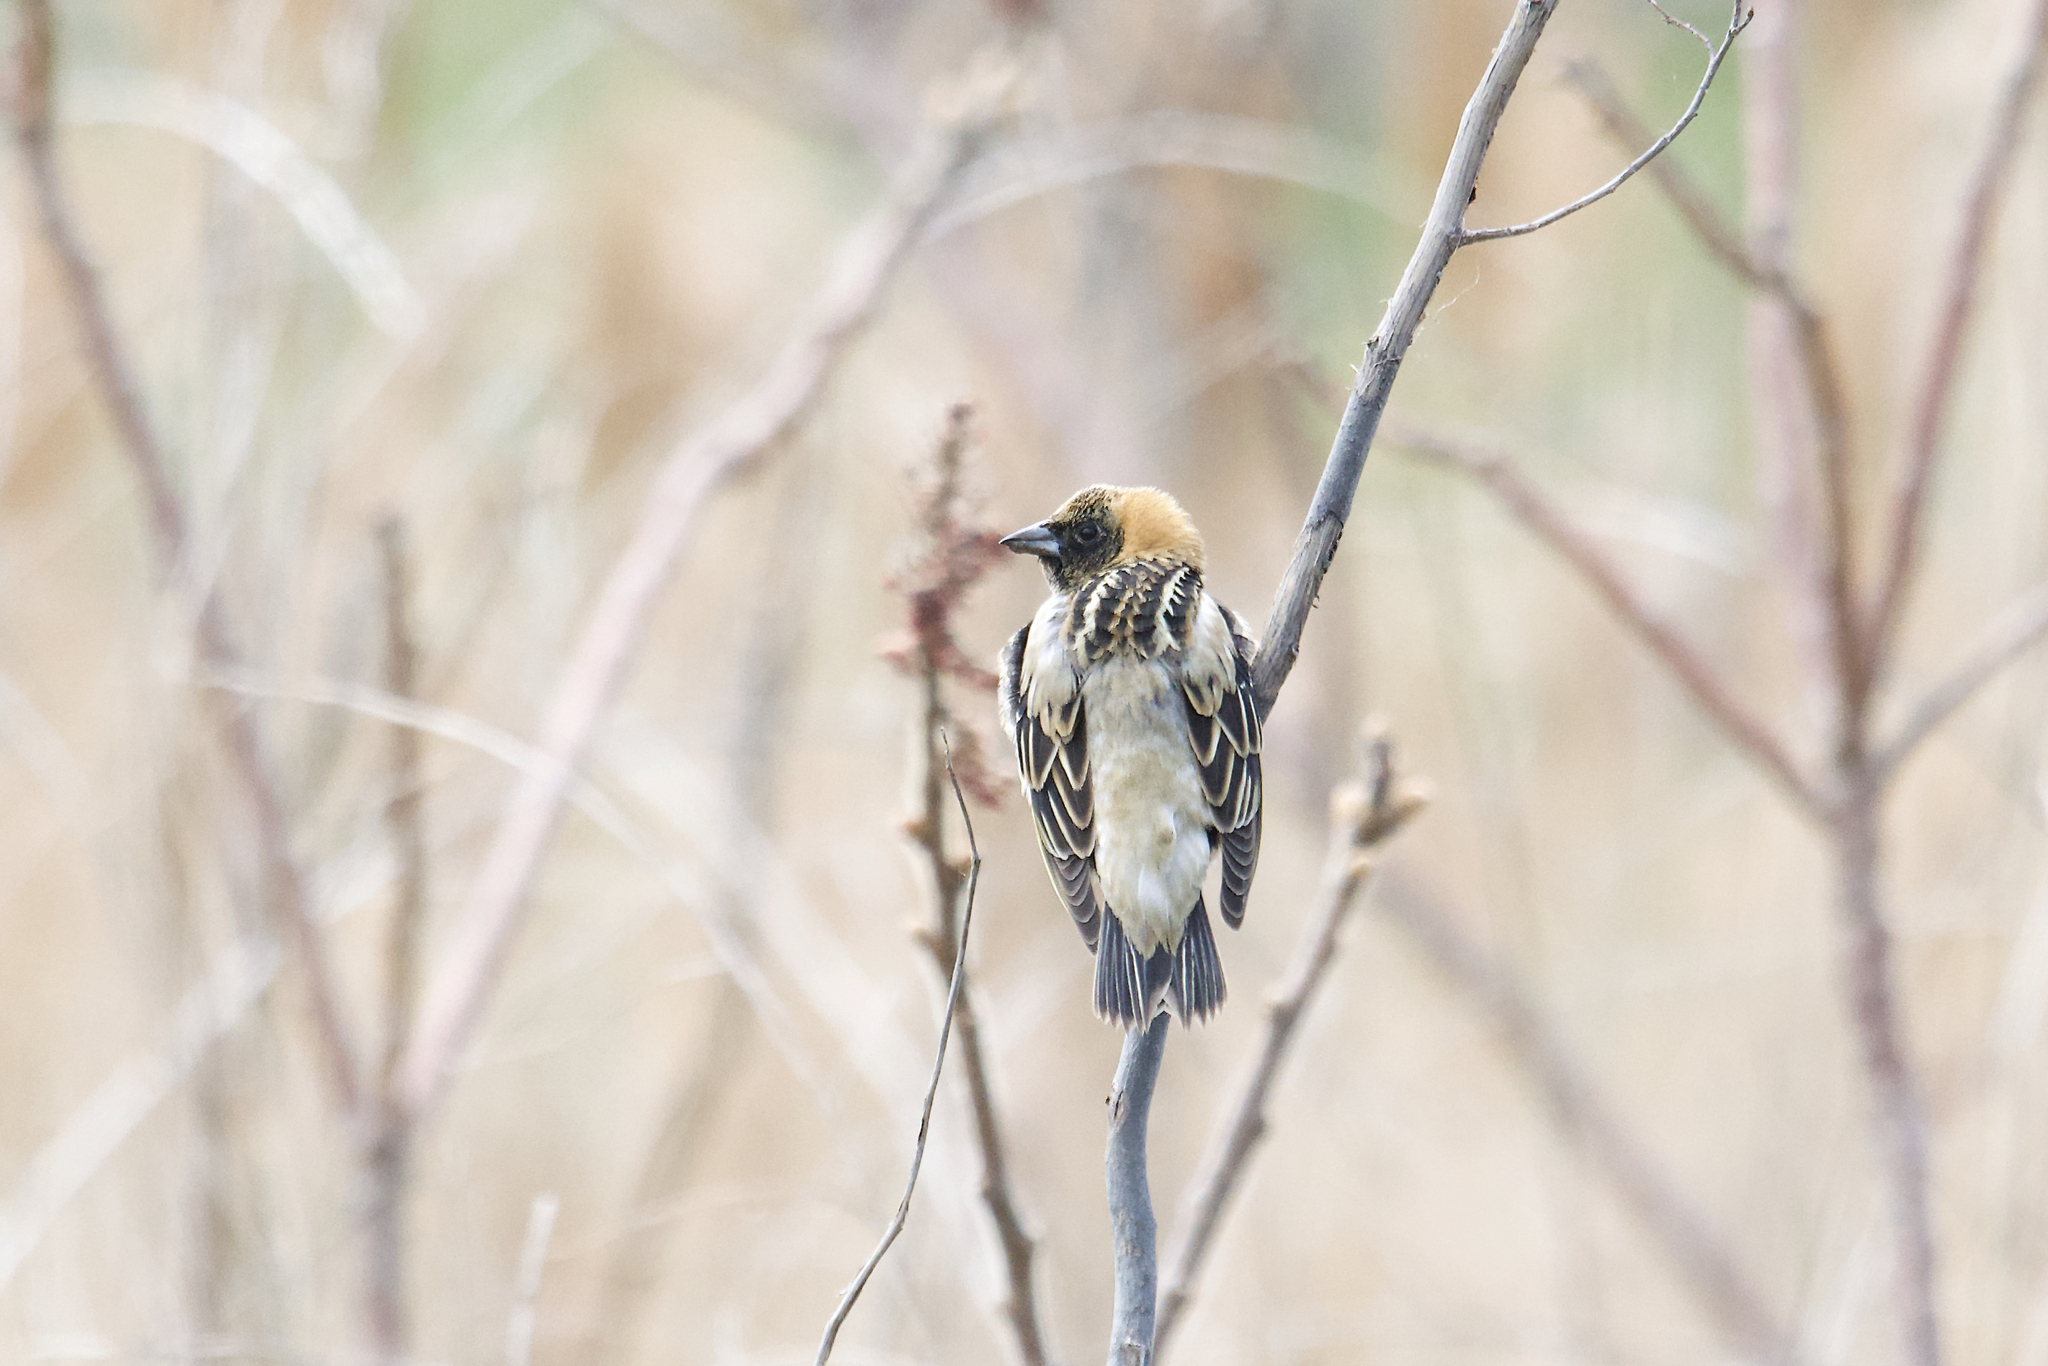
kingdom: Animalia
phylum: Chordata
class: Aves
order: Passeriformes
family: Icteridae
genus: Dolichonyx
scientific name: Dolichonyx oryzivorus
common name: Bobolink
